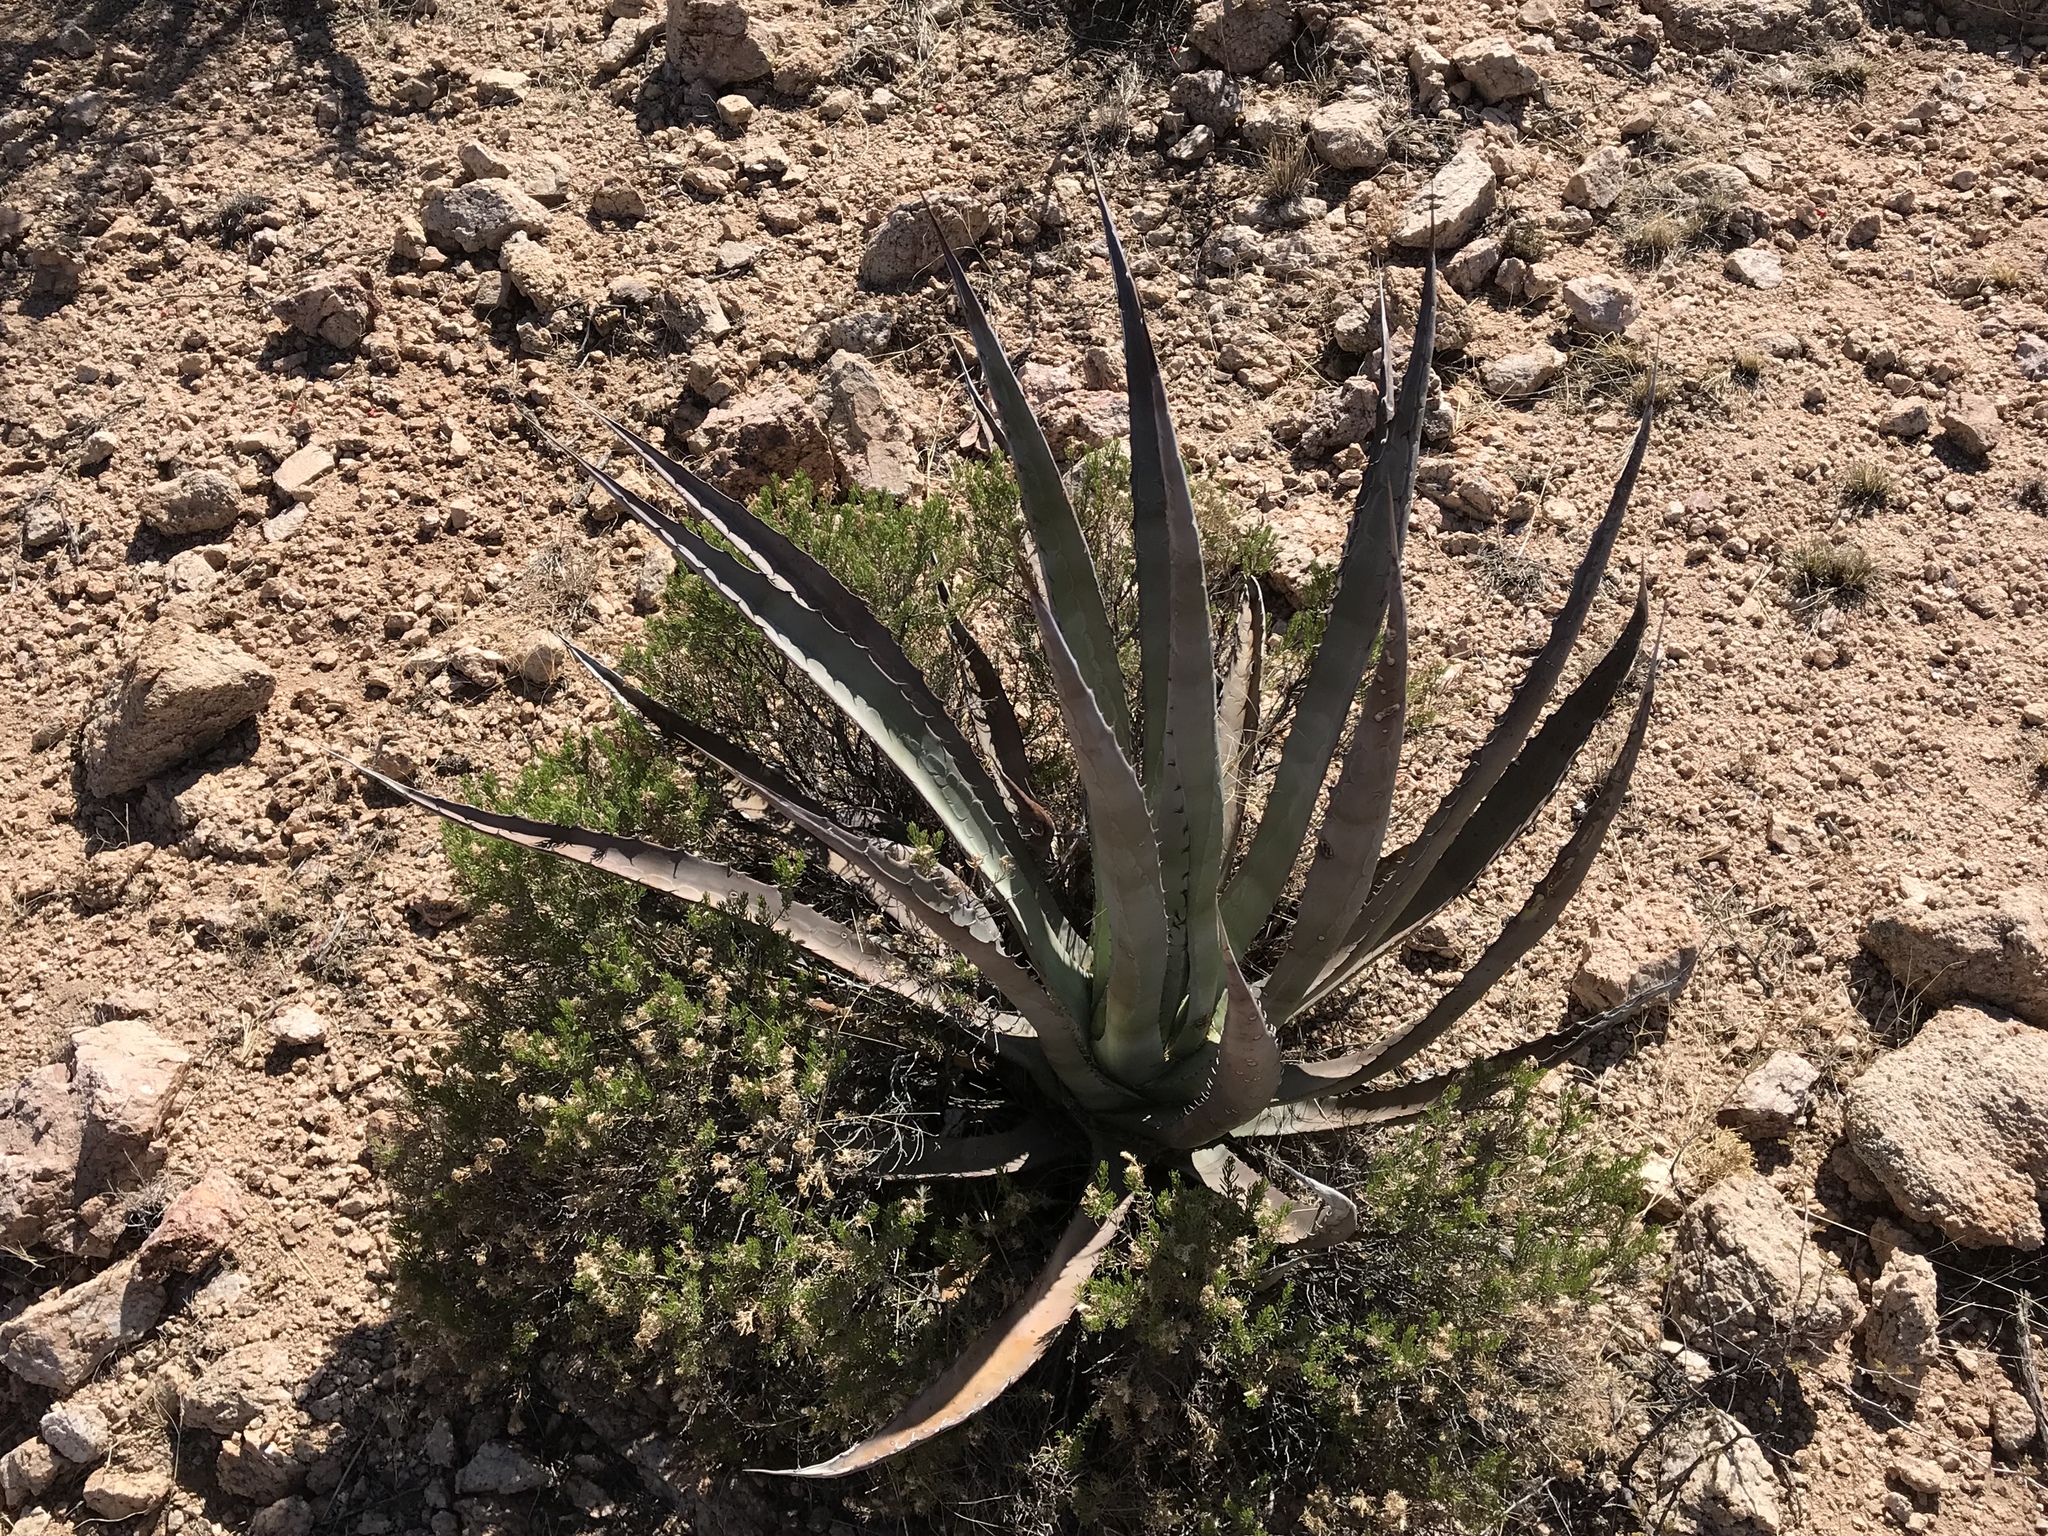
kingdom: Plantae
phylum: Tracheophyta
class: Liliopsida
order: Asparagales
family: Asparagaceae
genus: Agave
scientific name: Agave palmeri
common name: Palmer agave
